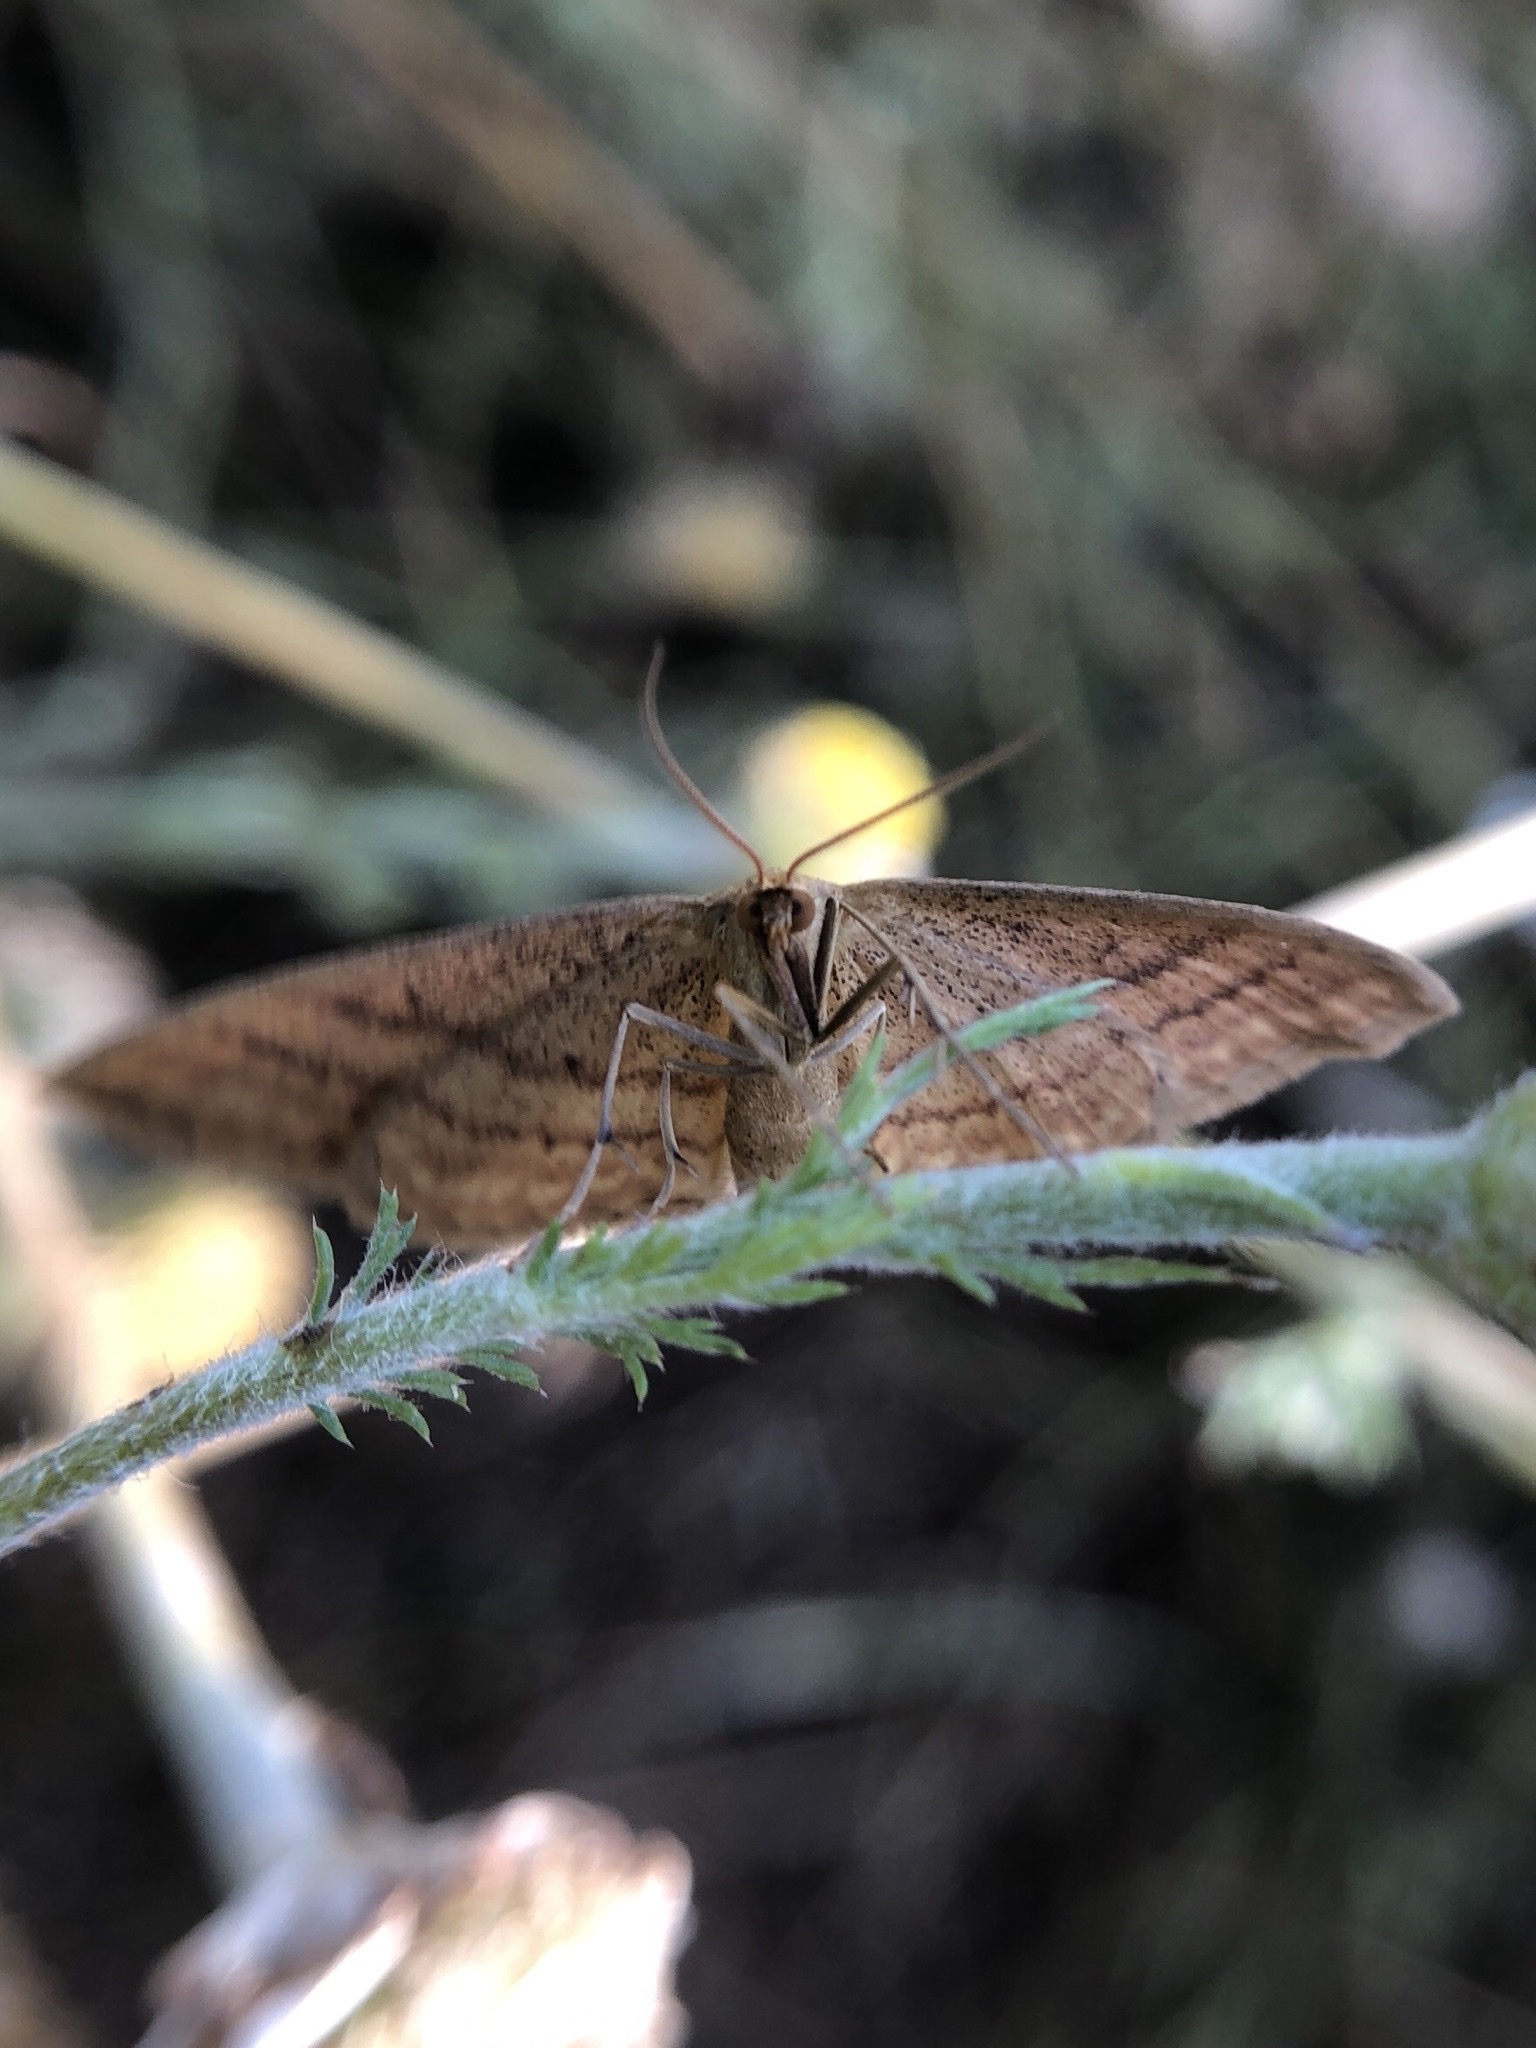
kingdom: Animalia
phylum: Arthropoda
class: Insecta
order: Lepidoptera
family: Geometridae
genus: Idaea
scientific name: Idaea ochrata
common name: Bright wave
